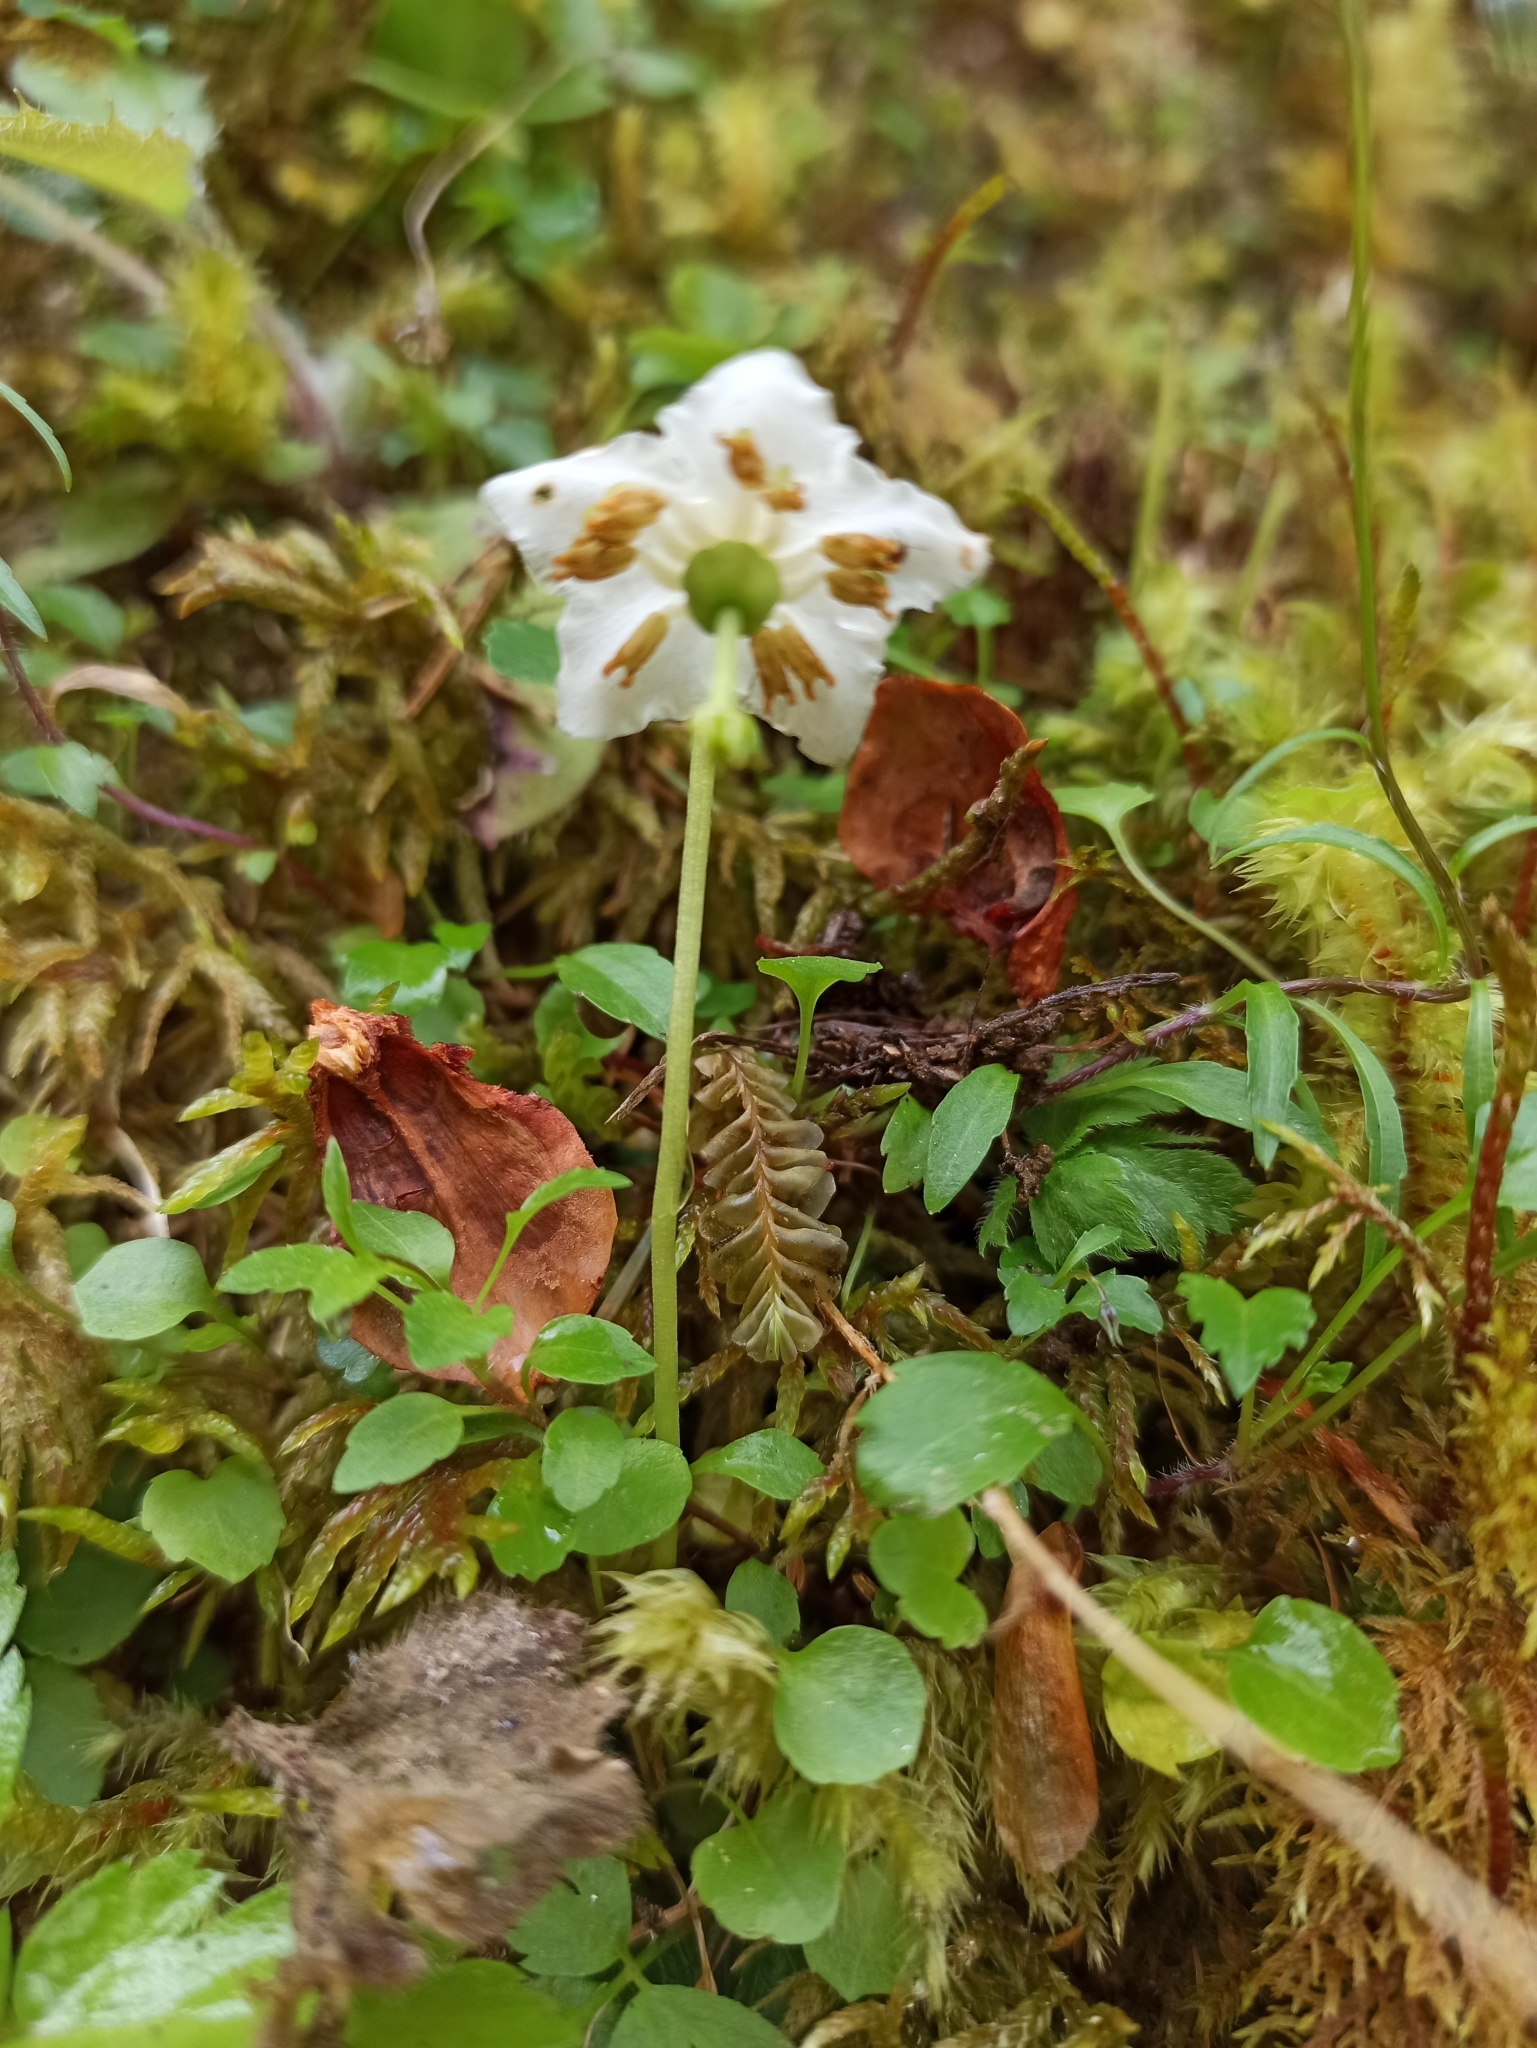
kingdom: Plantae
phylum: Tracheophyta
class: Magnoliopsida
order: Ericales
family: Ericaceae
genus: Moneses
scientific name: Moneses uniflora
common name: One-flowered wintergreen
